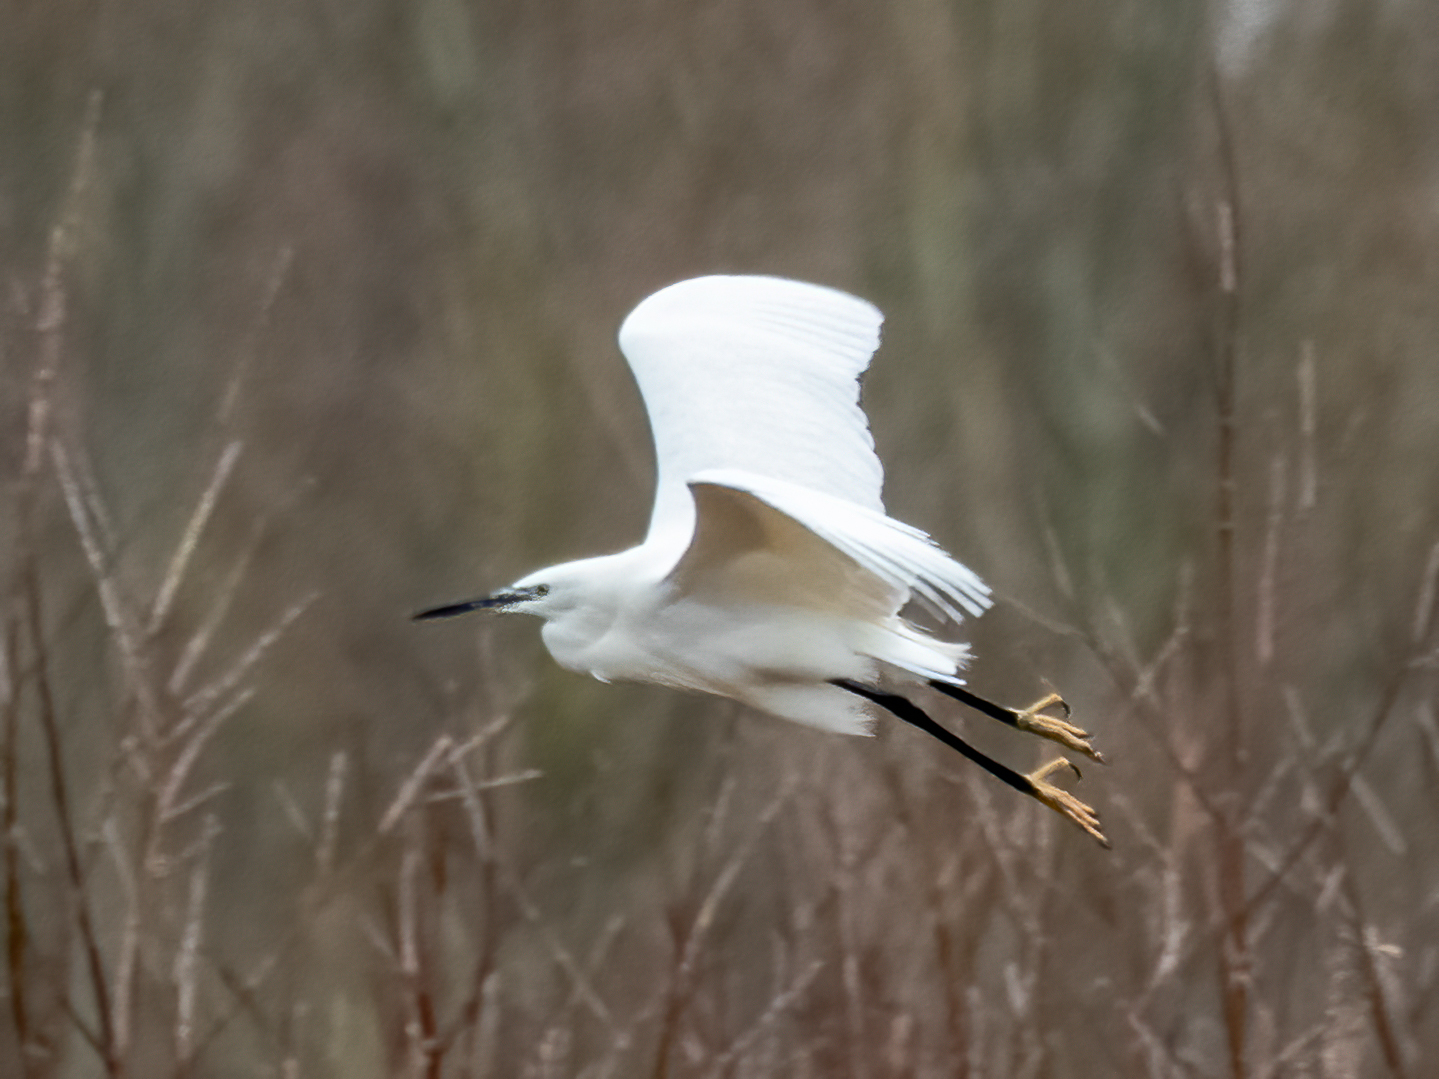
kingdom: Animalia
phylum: Chordata
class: Aves
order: Pelecaniformes
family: Ardeidae
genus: Egretta
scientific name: Egretta garzetta
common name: Little egret
